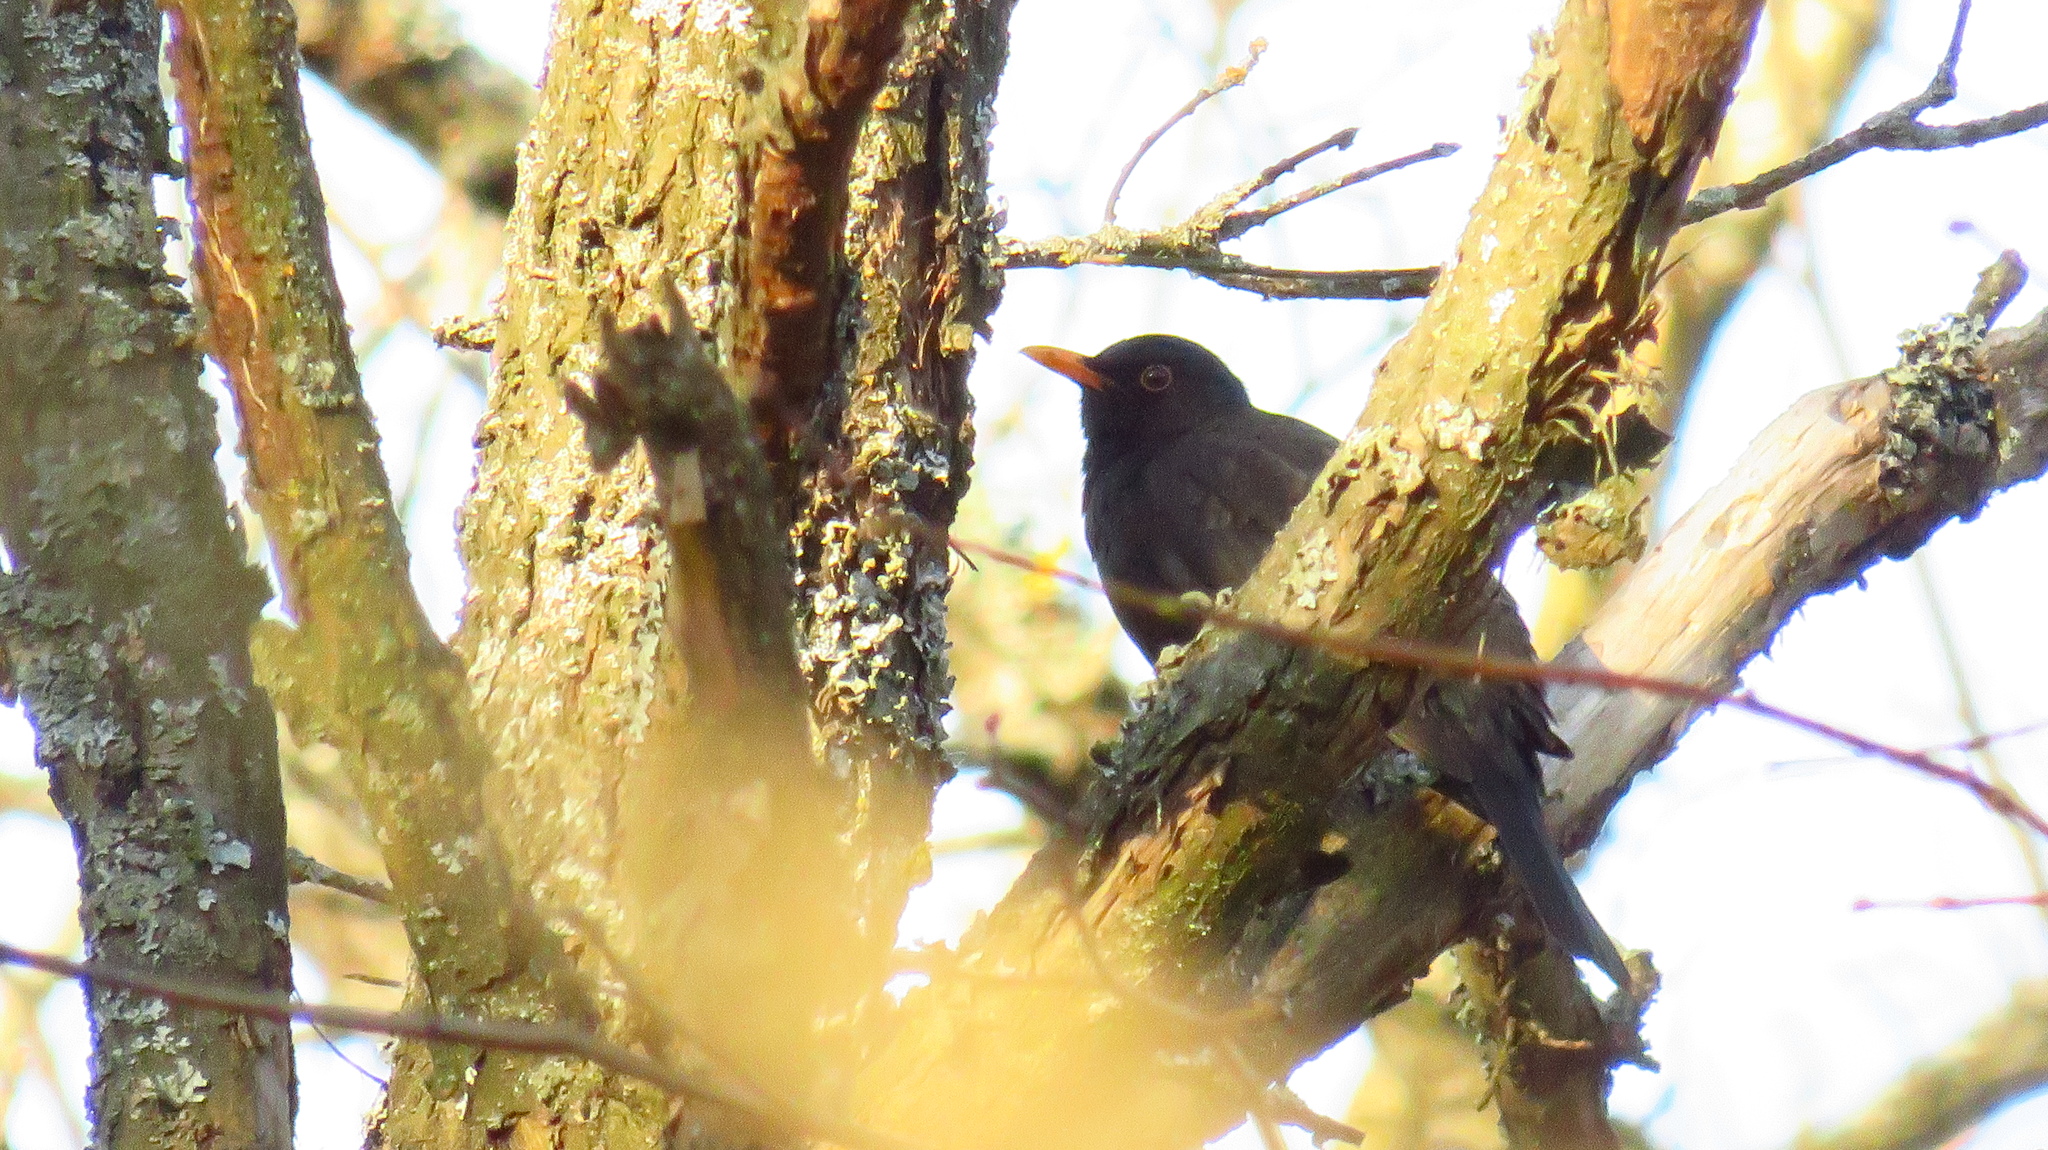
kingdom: Animalia
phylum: Chordata
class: Aves
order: Passeriformes
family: Turdidae
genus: Turdus
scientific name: Turdus merula
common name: Common blackbird
